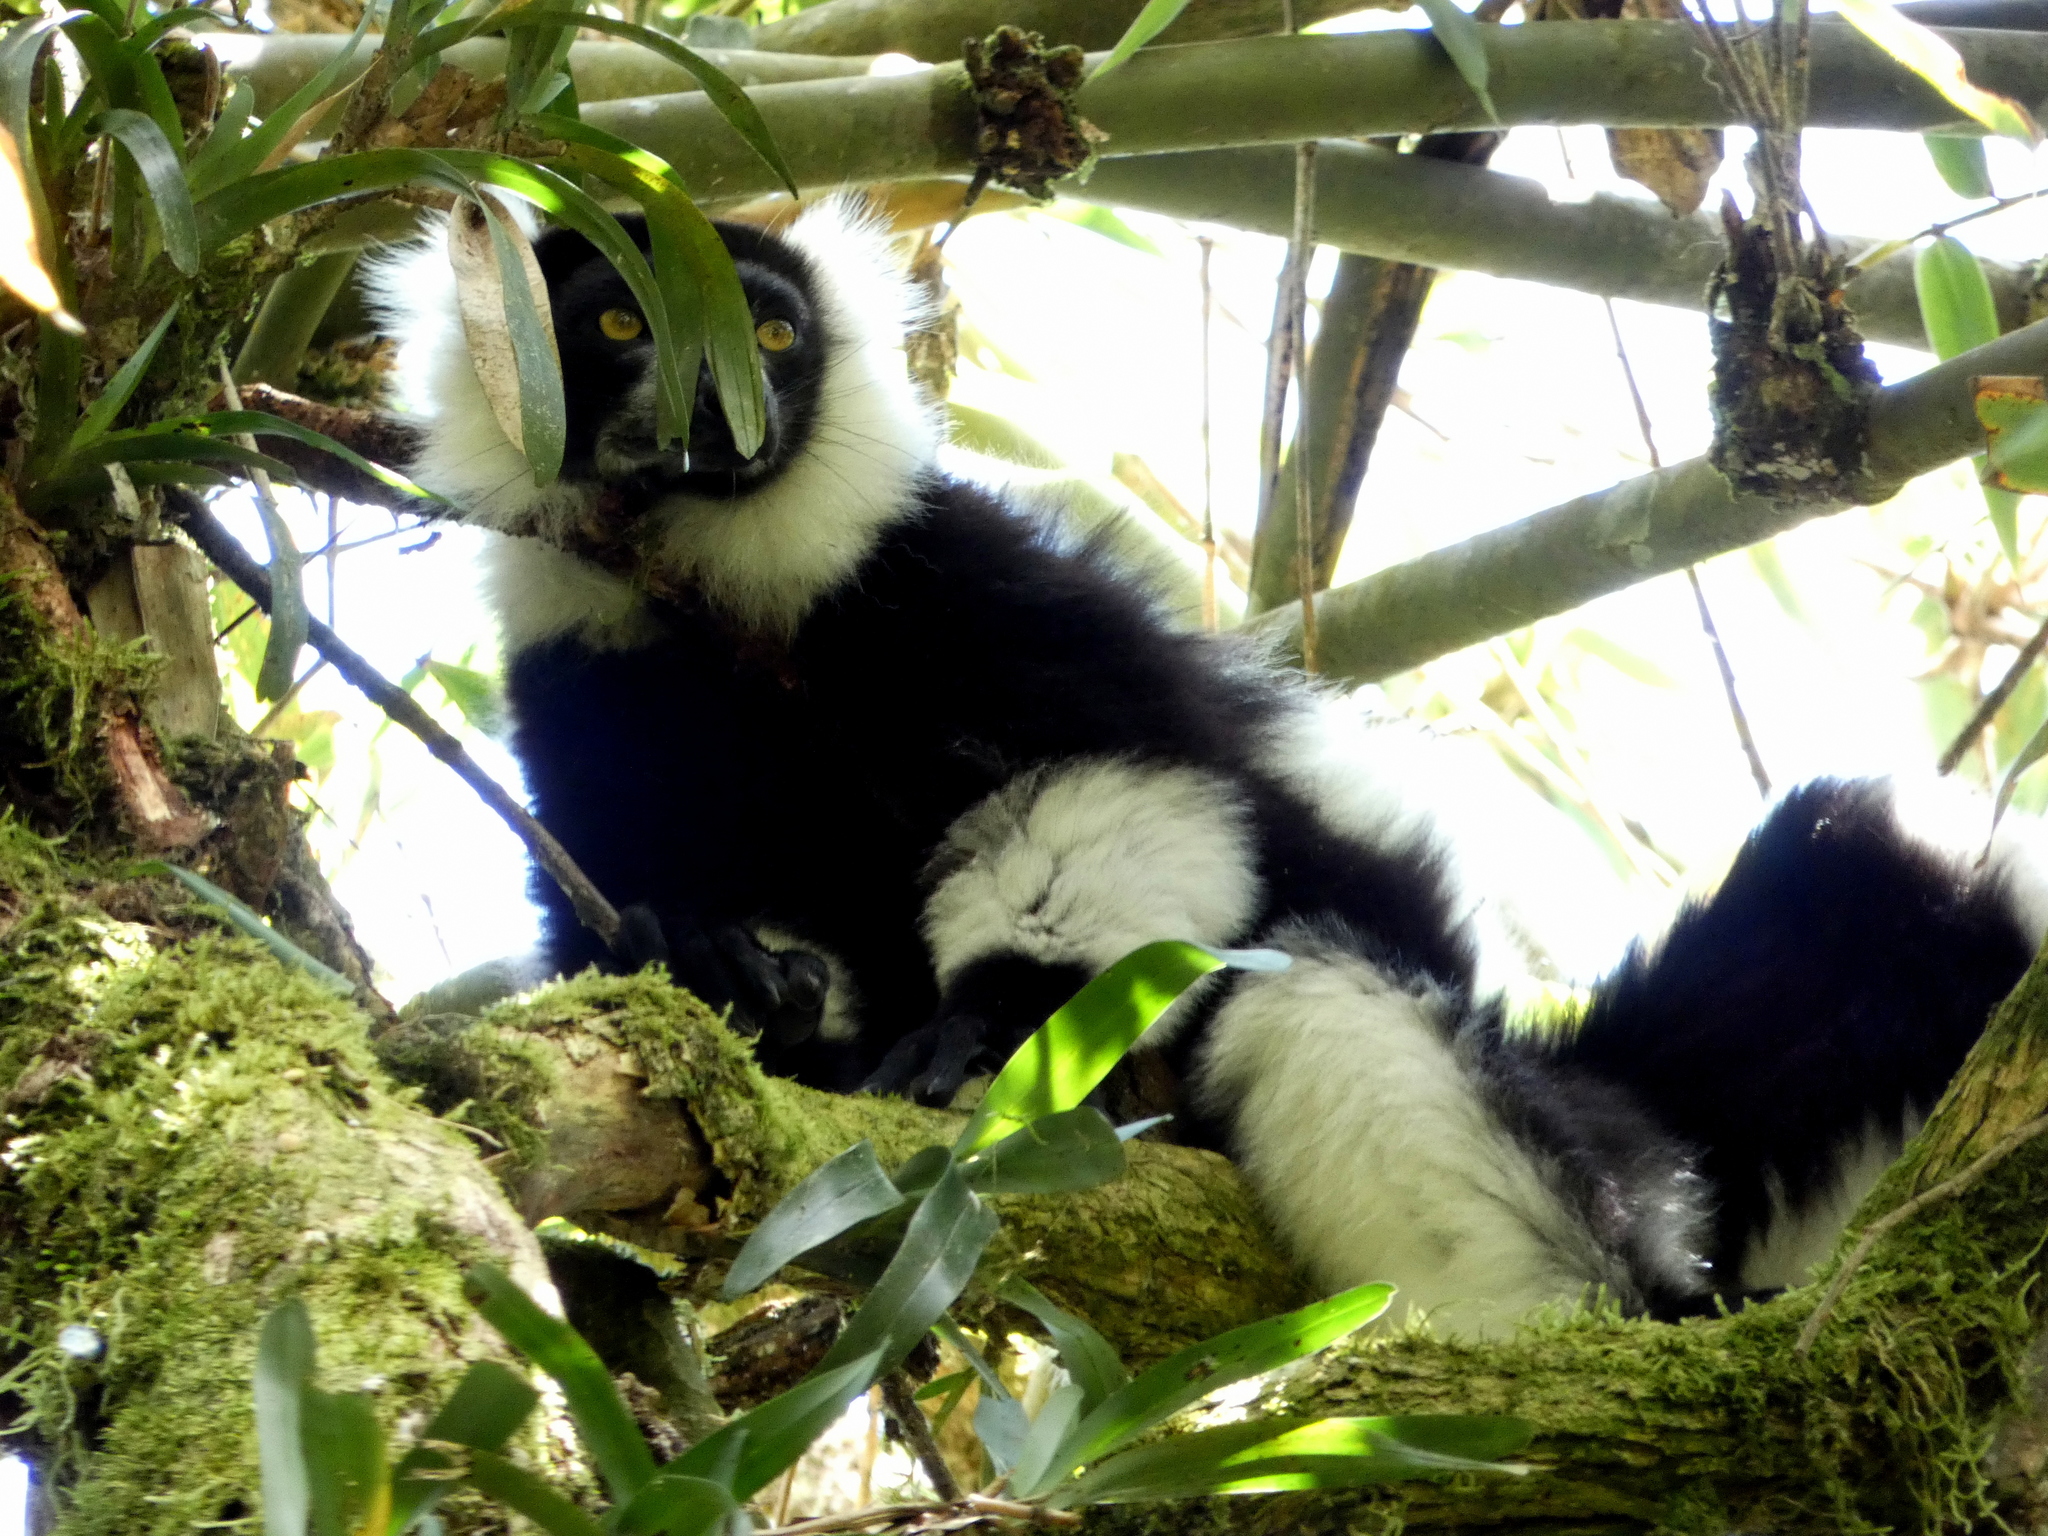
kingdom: Animalia
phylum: Chordata
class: Mammalia
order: Primates
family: Lemuridae
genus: Varecia
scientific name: Varecia variegata
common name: Black-and-white ruffed lemur
